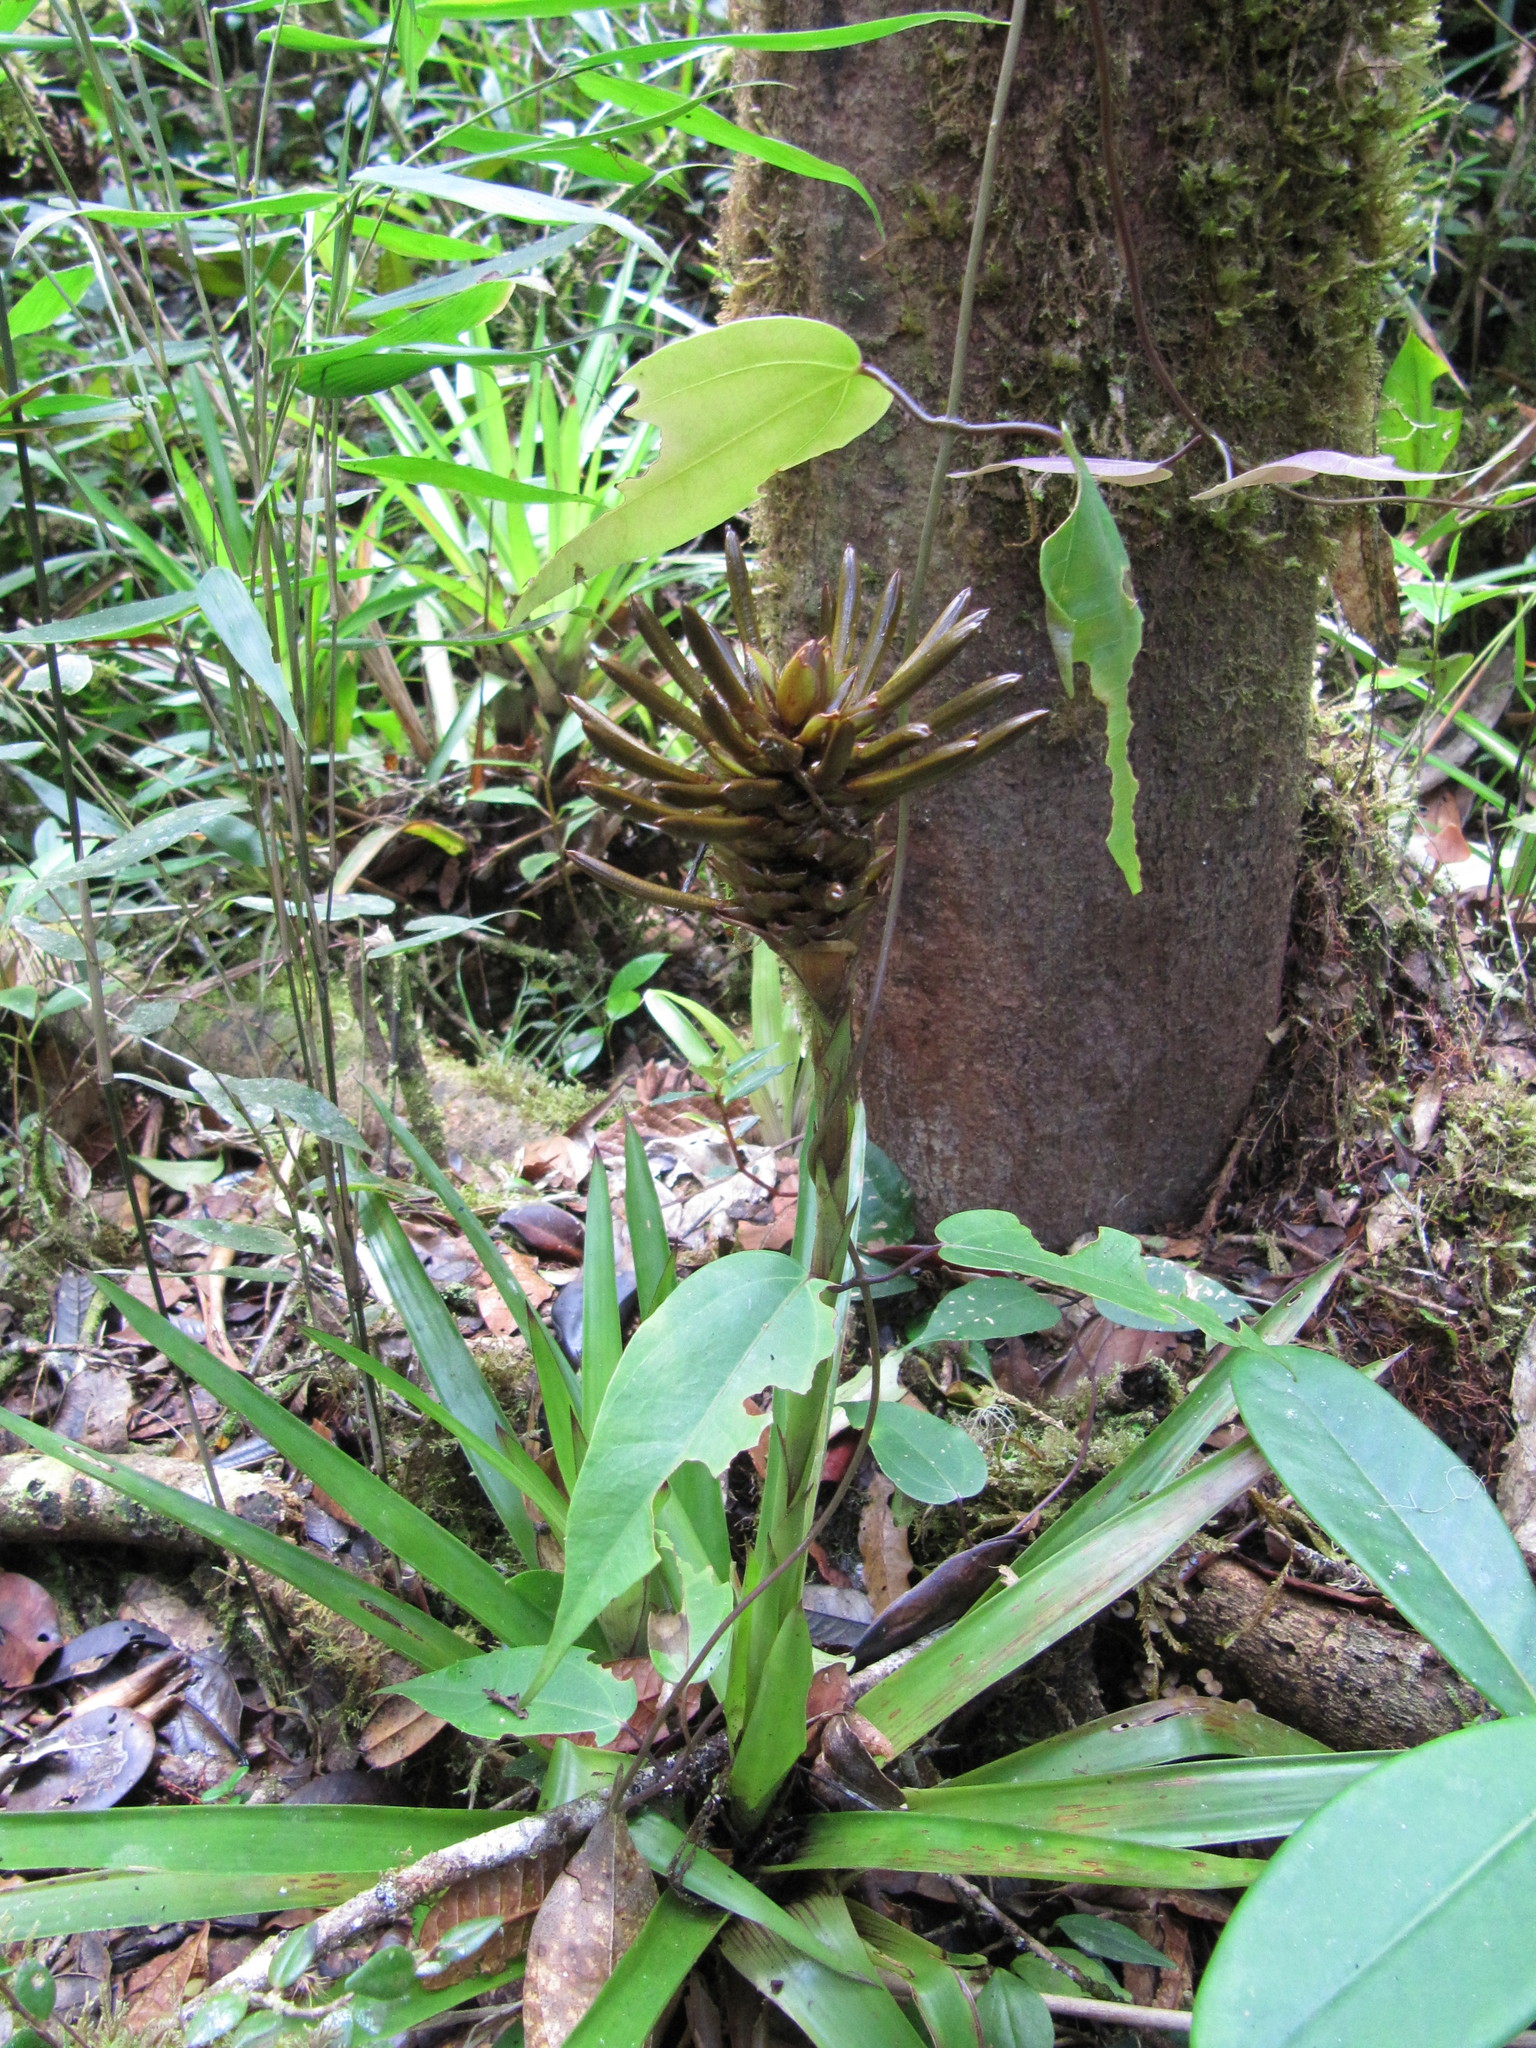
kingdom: Plantae
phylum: Tracheophyta
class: Liliopsida
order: Poales
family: Bromeliaceae
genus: Guzmania
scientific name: Guzmania coriostachya
